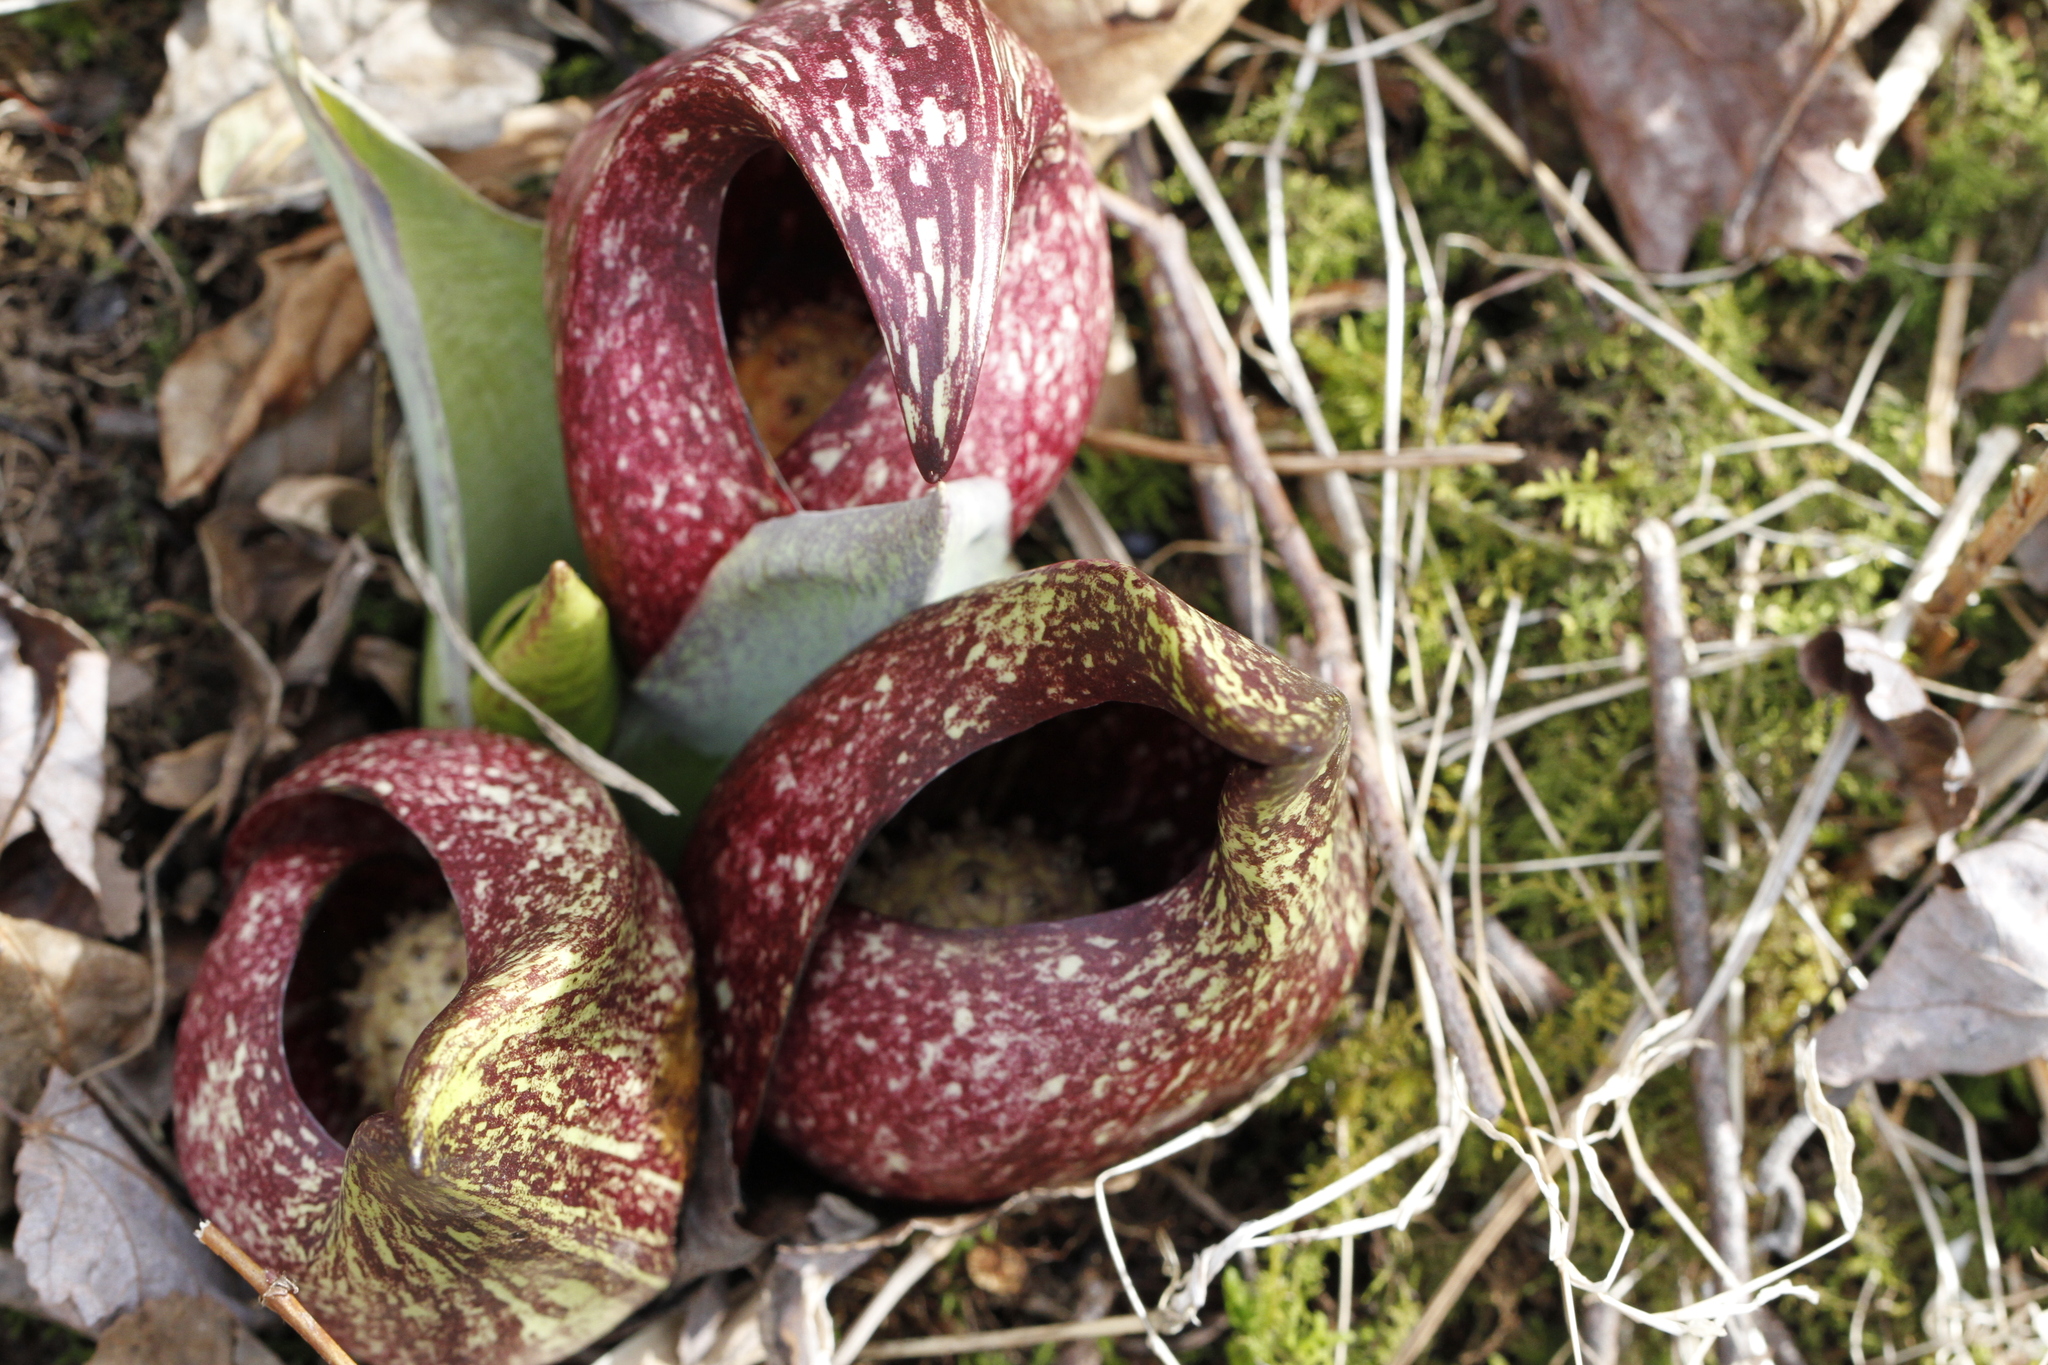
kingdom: Plantae
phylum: Tracheophyta
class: Liliopsida
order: Alismatales
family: Araceae
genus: Symplocarpus
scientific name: Symplocarpus foetidus
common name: Eastern skunk cabbage
